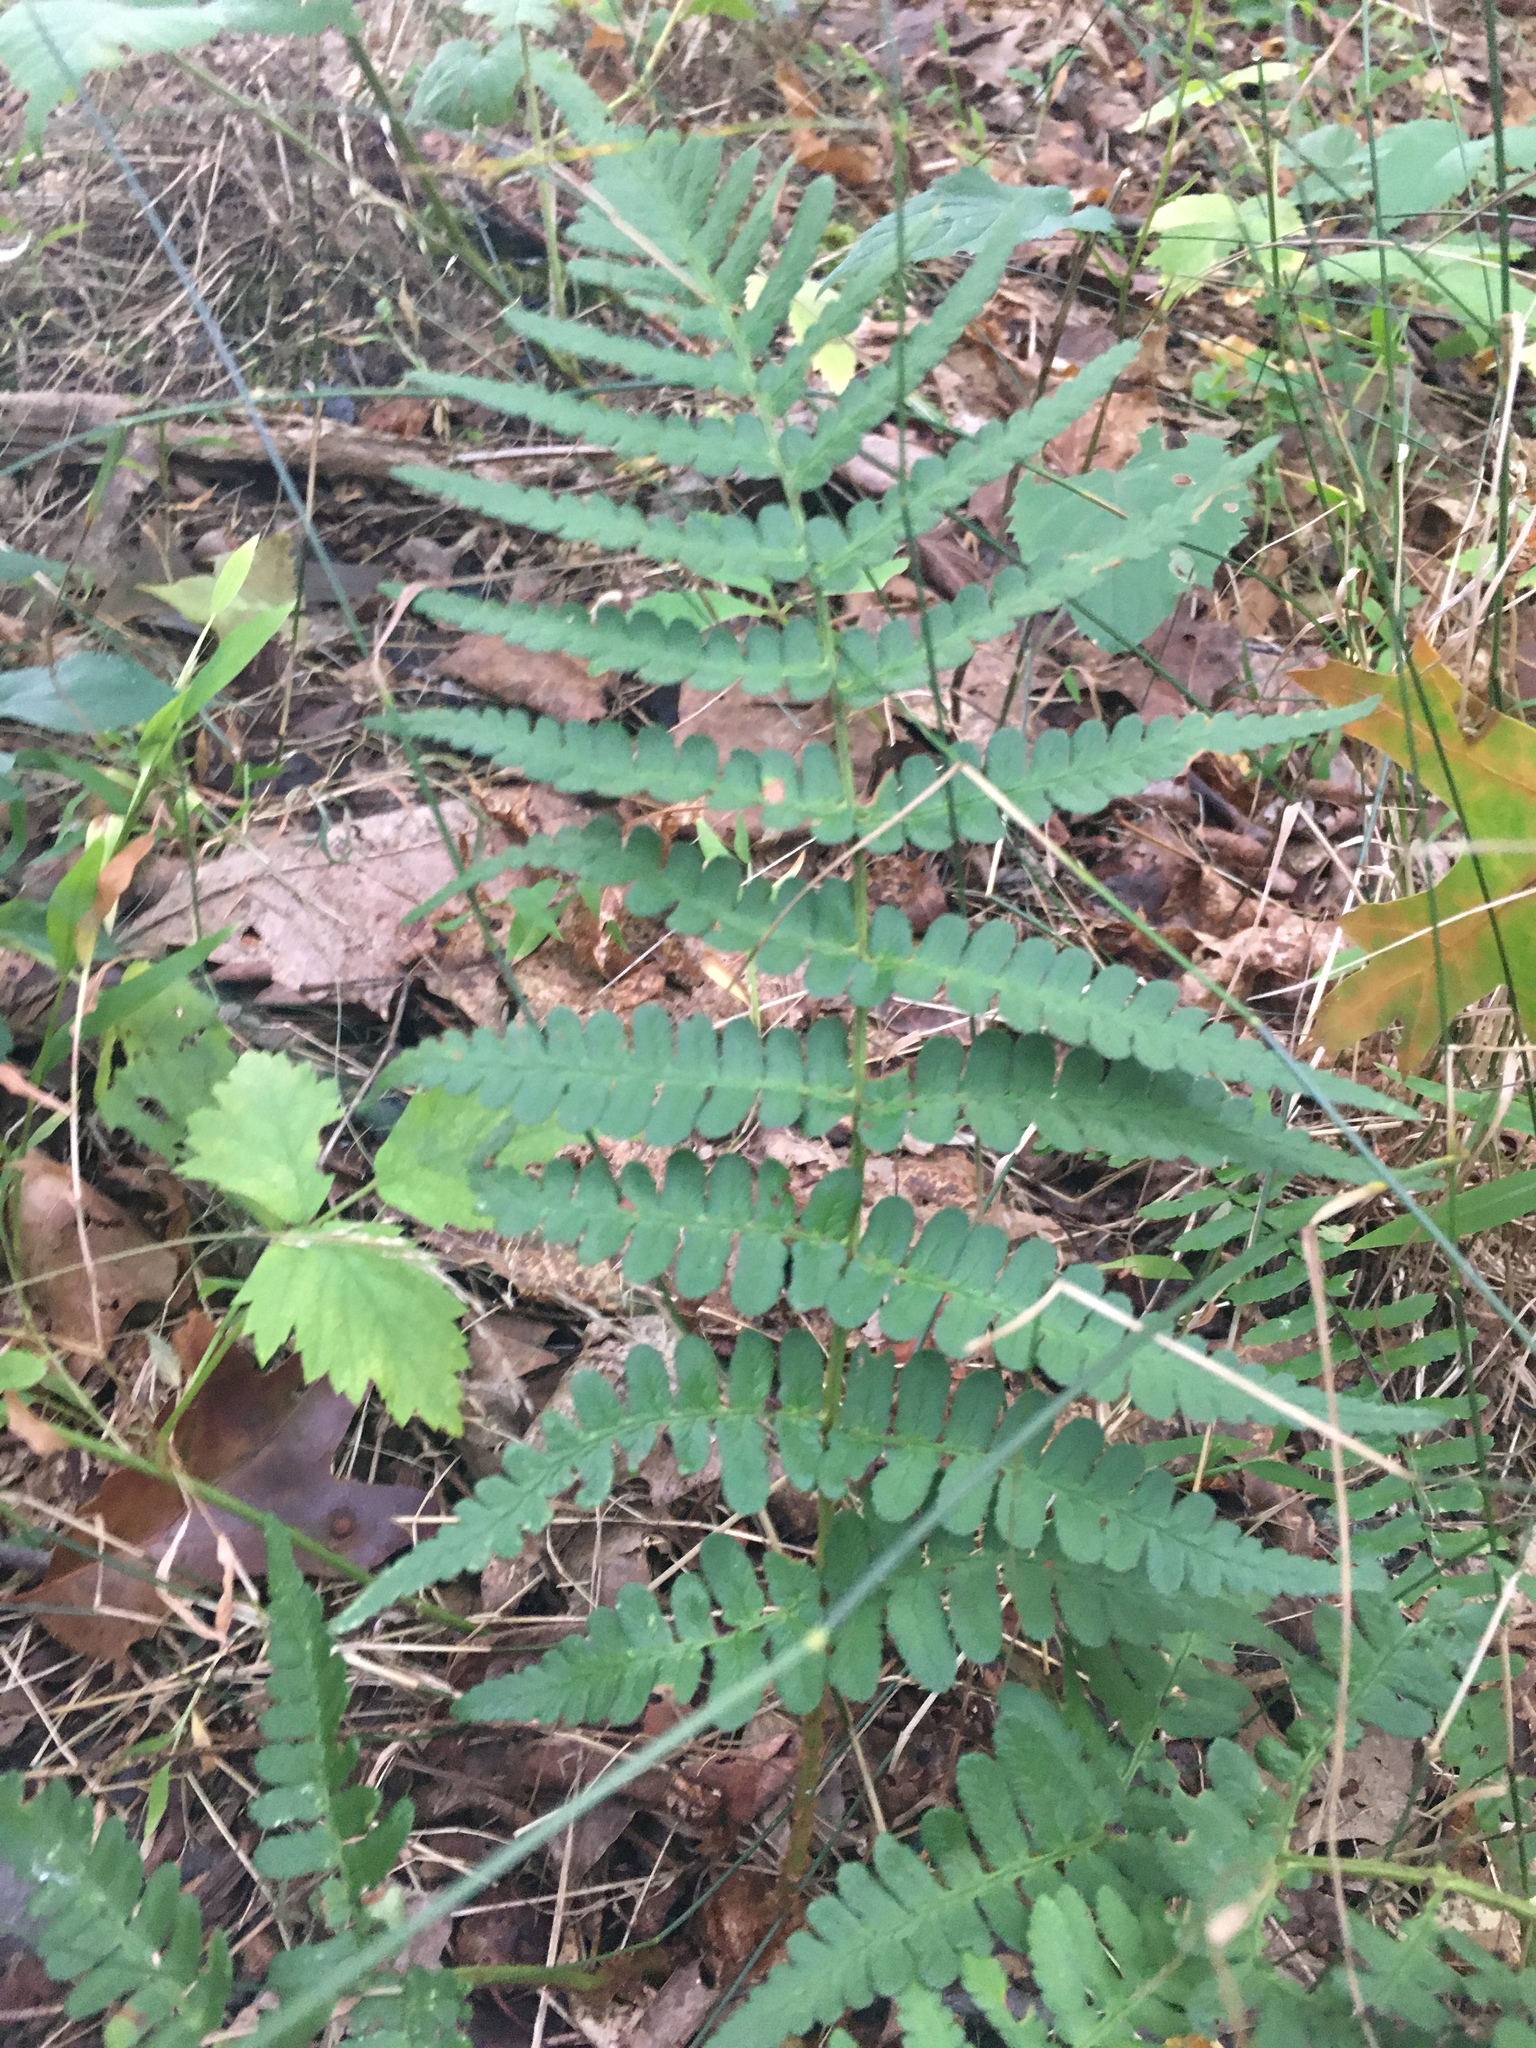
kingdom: Plantae
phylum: Tracheophyta
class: Polypodiopsida
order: Polypodiales
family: Dryopteridaceae
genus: Dryopteris
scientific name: Dryopteris marginalis
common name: Marginal wood fern
